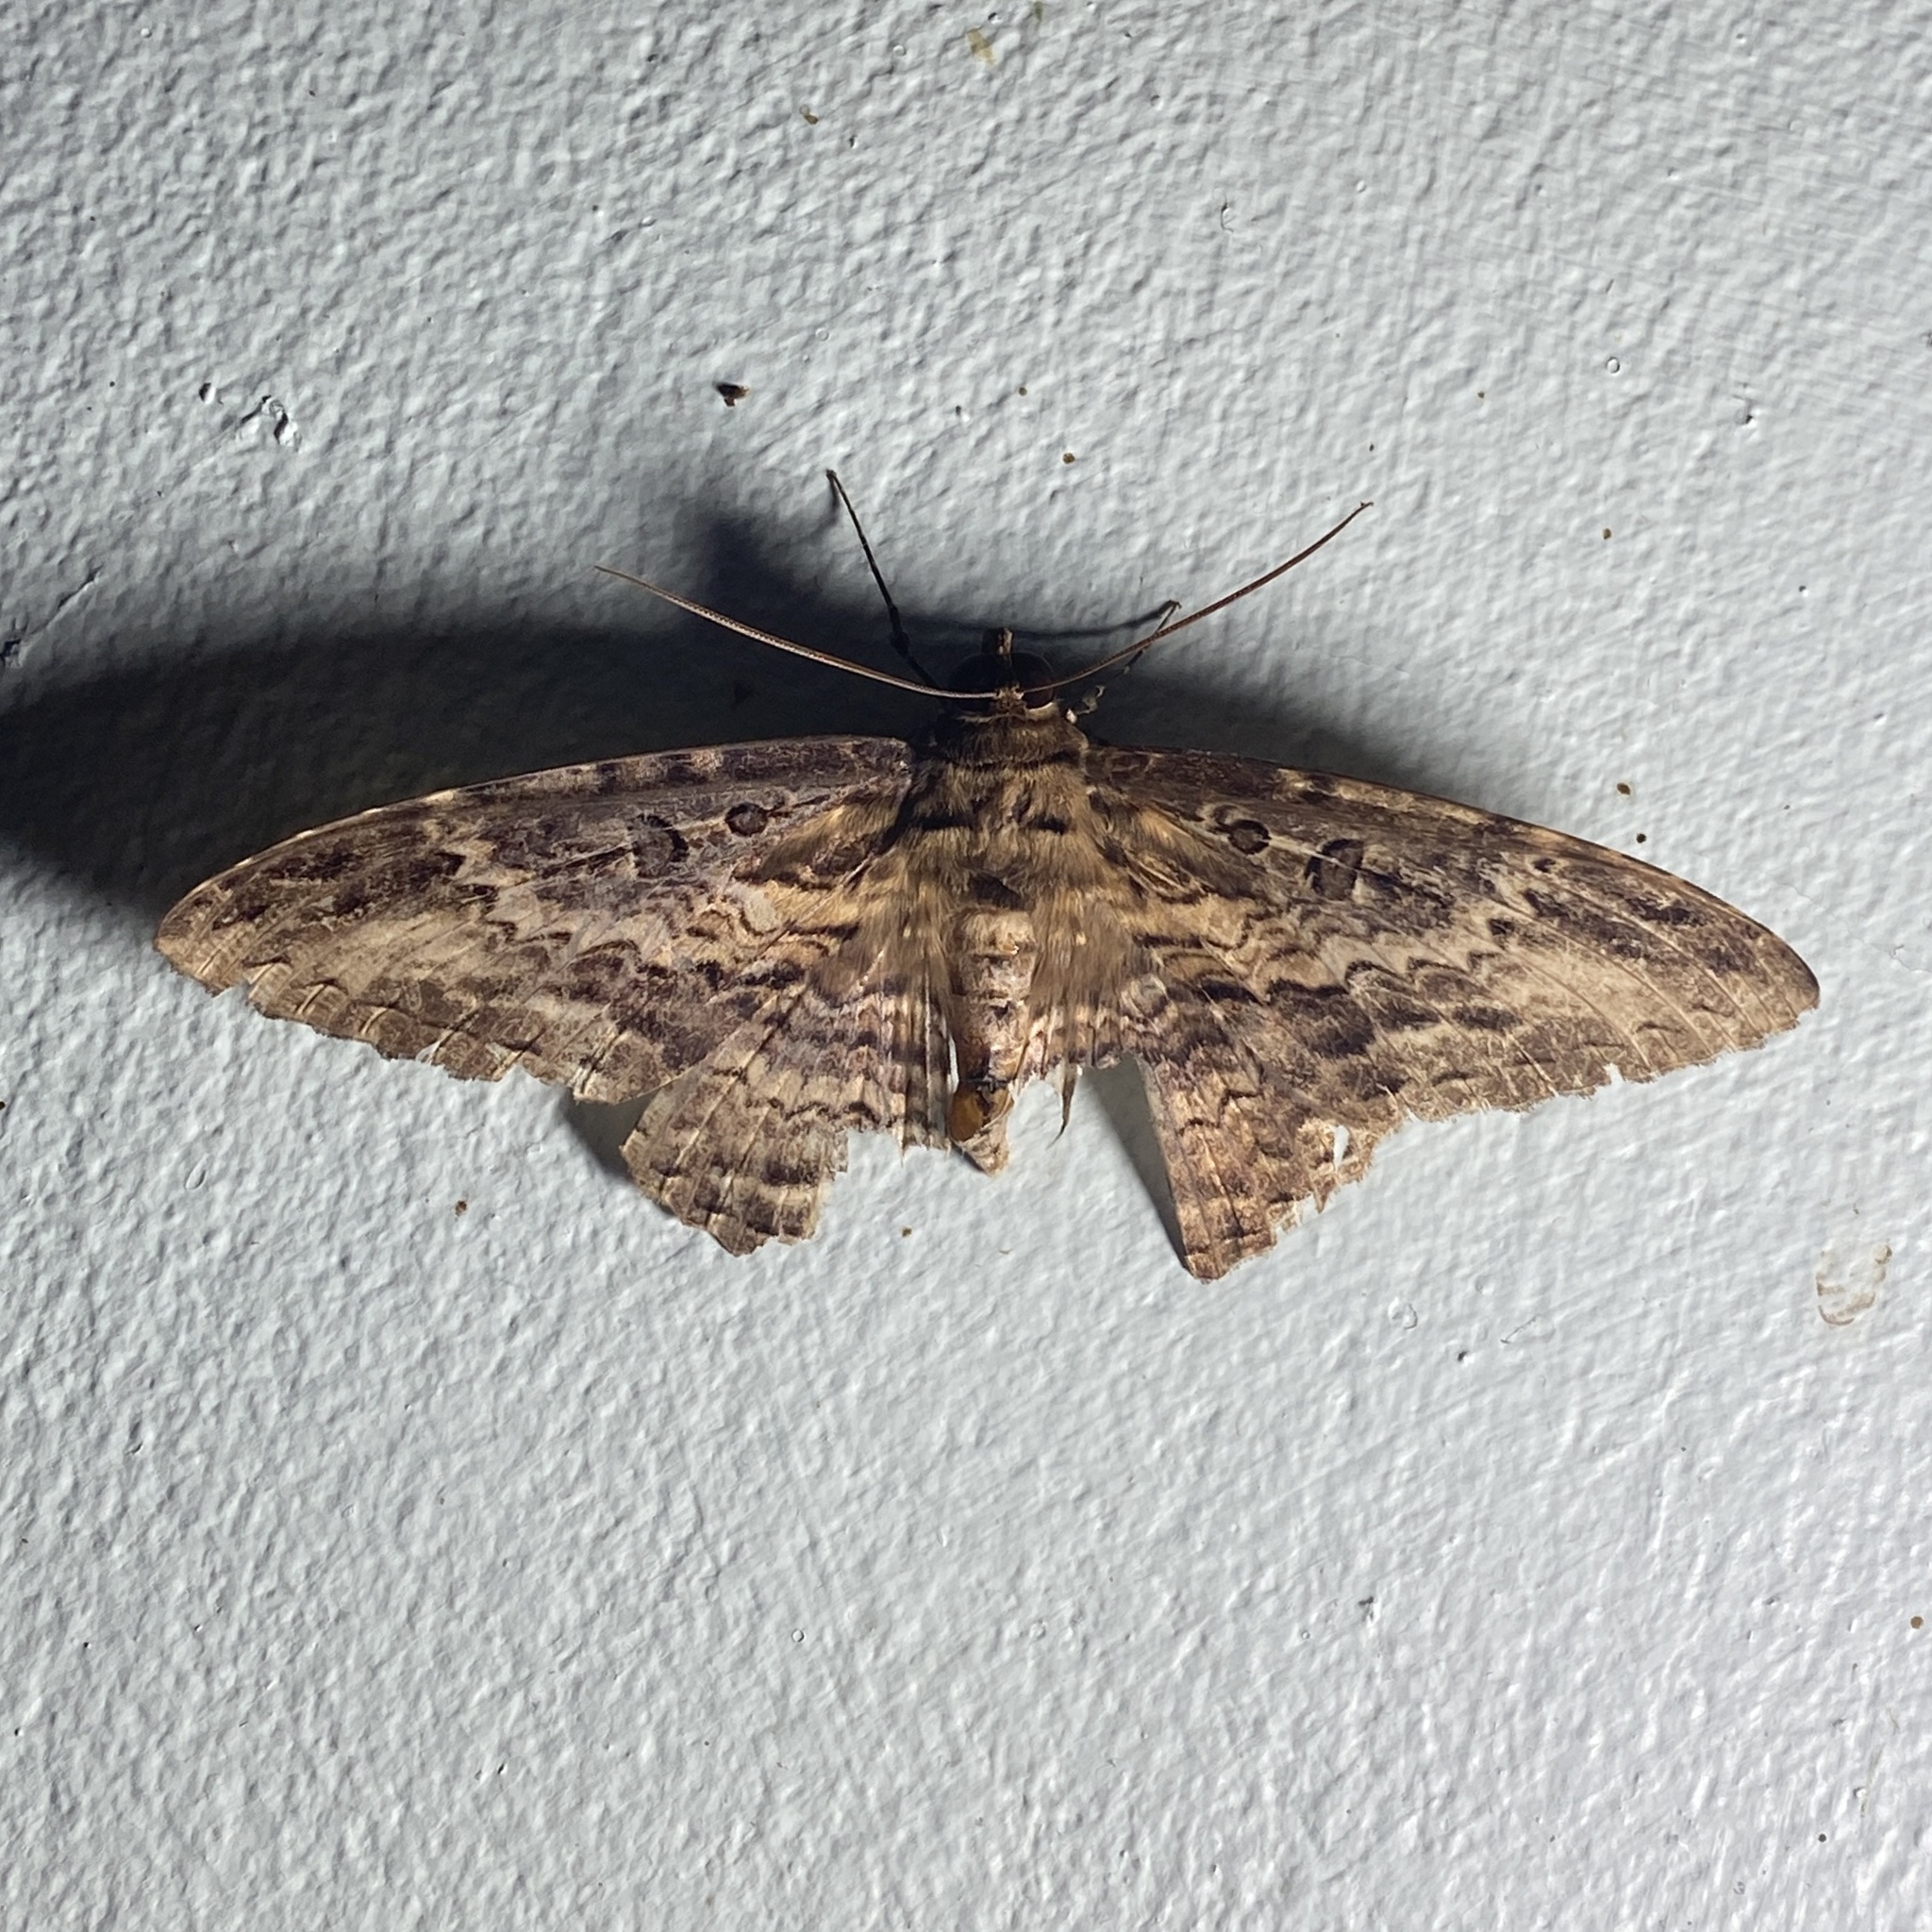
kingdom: Animalia
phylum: Arthropoda
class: Insecta
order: Lepidoptera
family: Erebidae
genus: Feigeria
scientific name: Feigeria buteo
